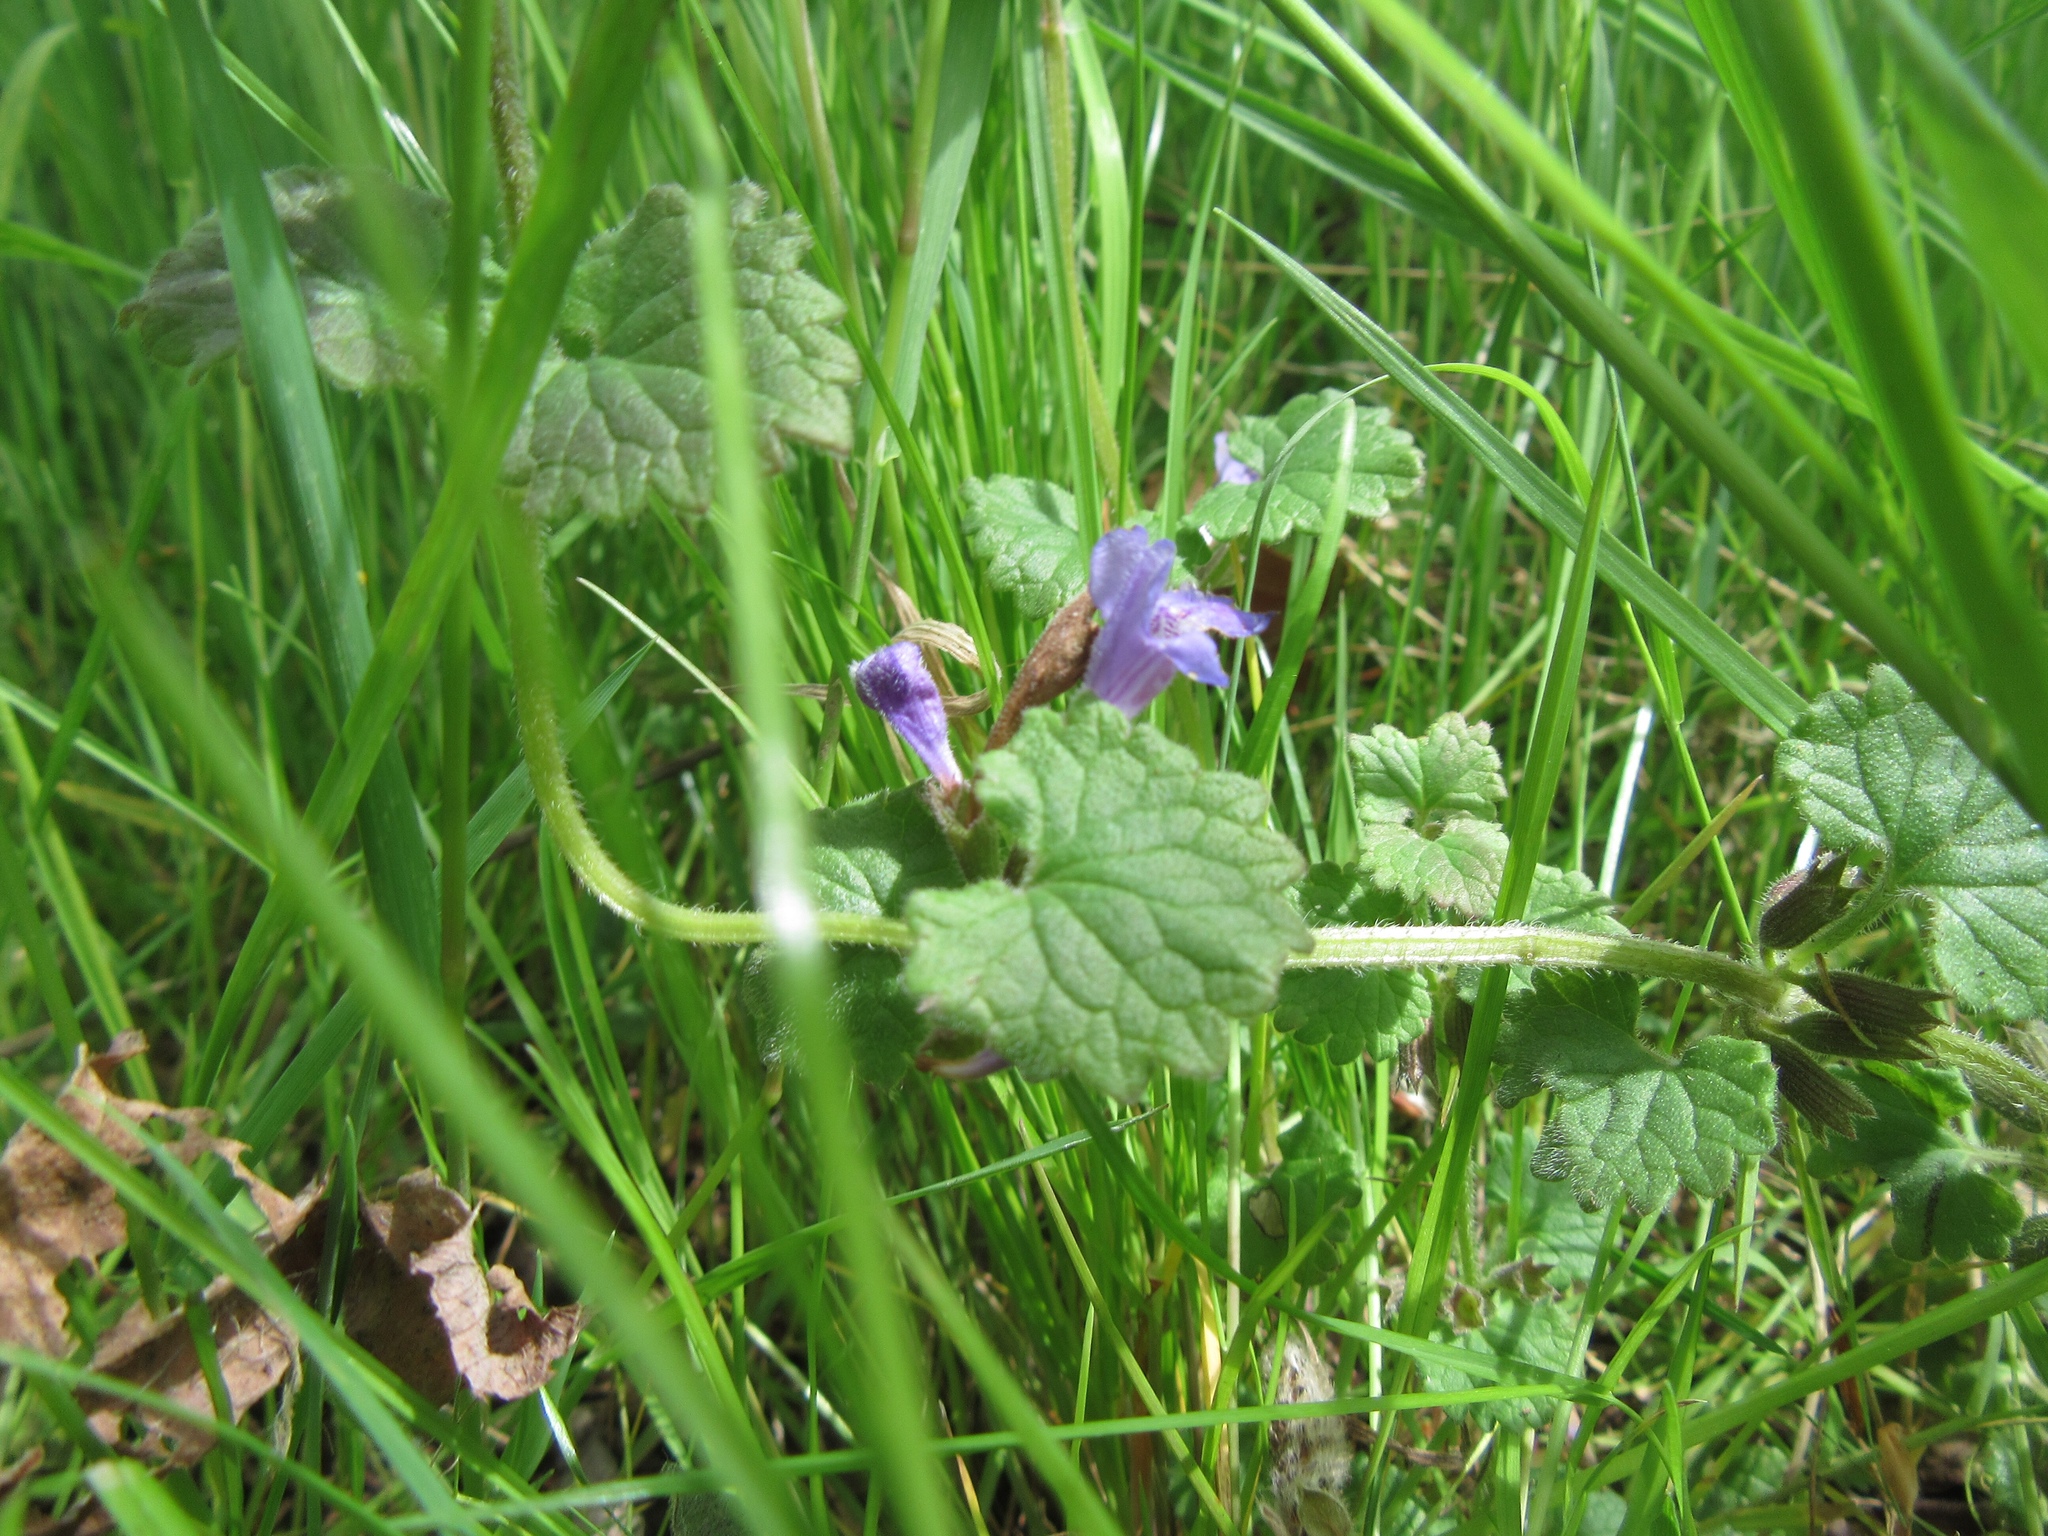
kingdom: Plantae
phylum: Tracheophyta
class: Magnoliopsida
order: Lamiales
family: Lamiaceae
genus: Glechoma
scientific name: Glechoma hederacea
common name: Ground ivy
